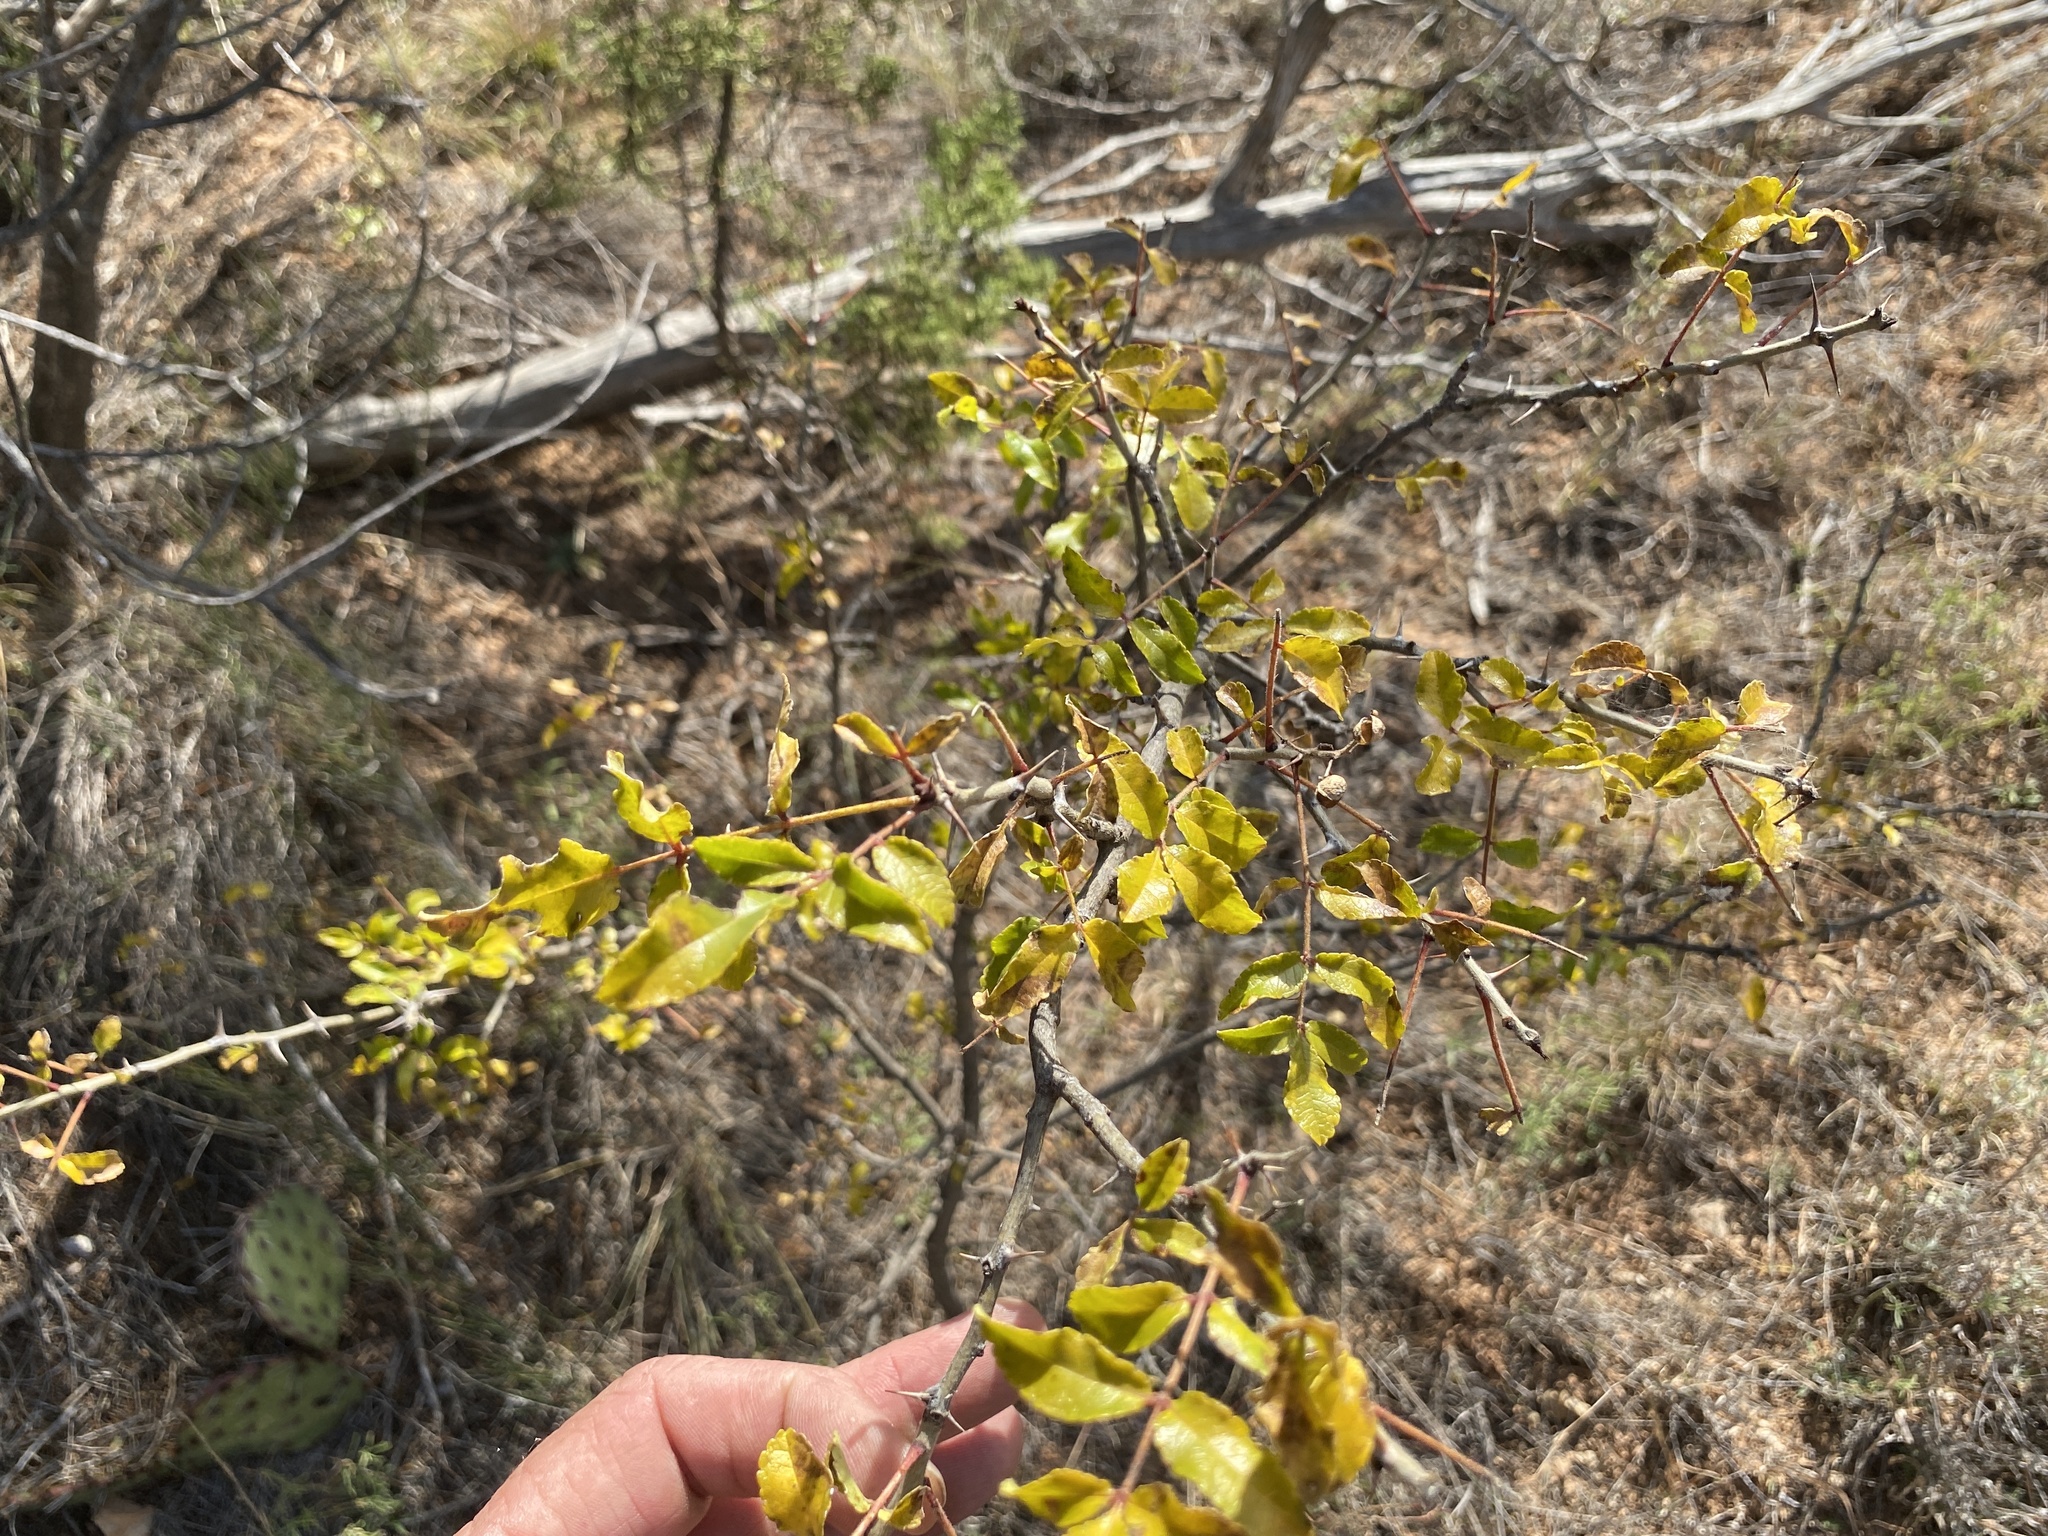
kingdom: Plantae
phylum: Tracheophyta
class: Magnoliopsida
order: Sapindales
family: Rutaceae
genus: Zanthoxylum
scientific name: Zanthoxylum clava-herculis
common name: Hercules'-club
